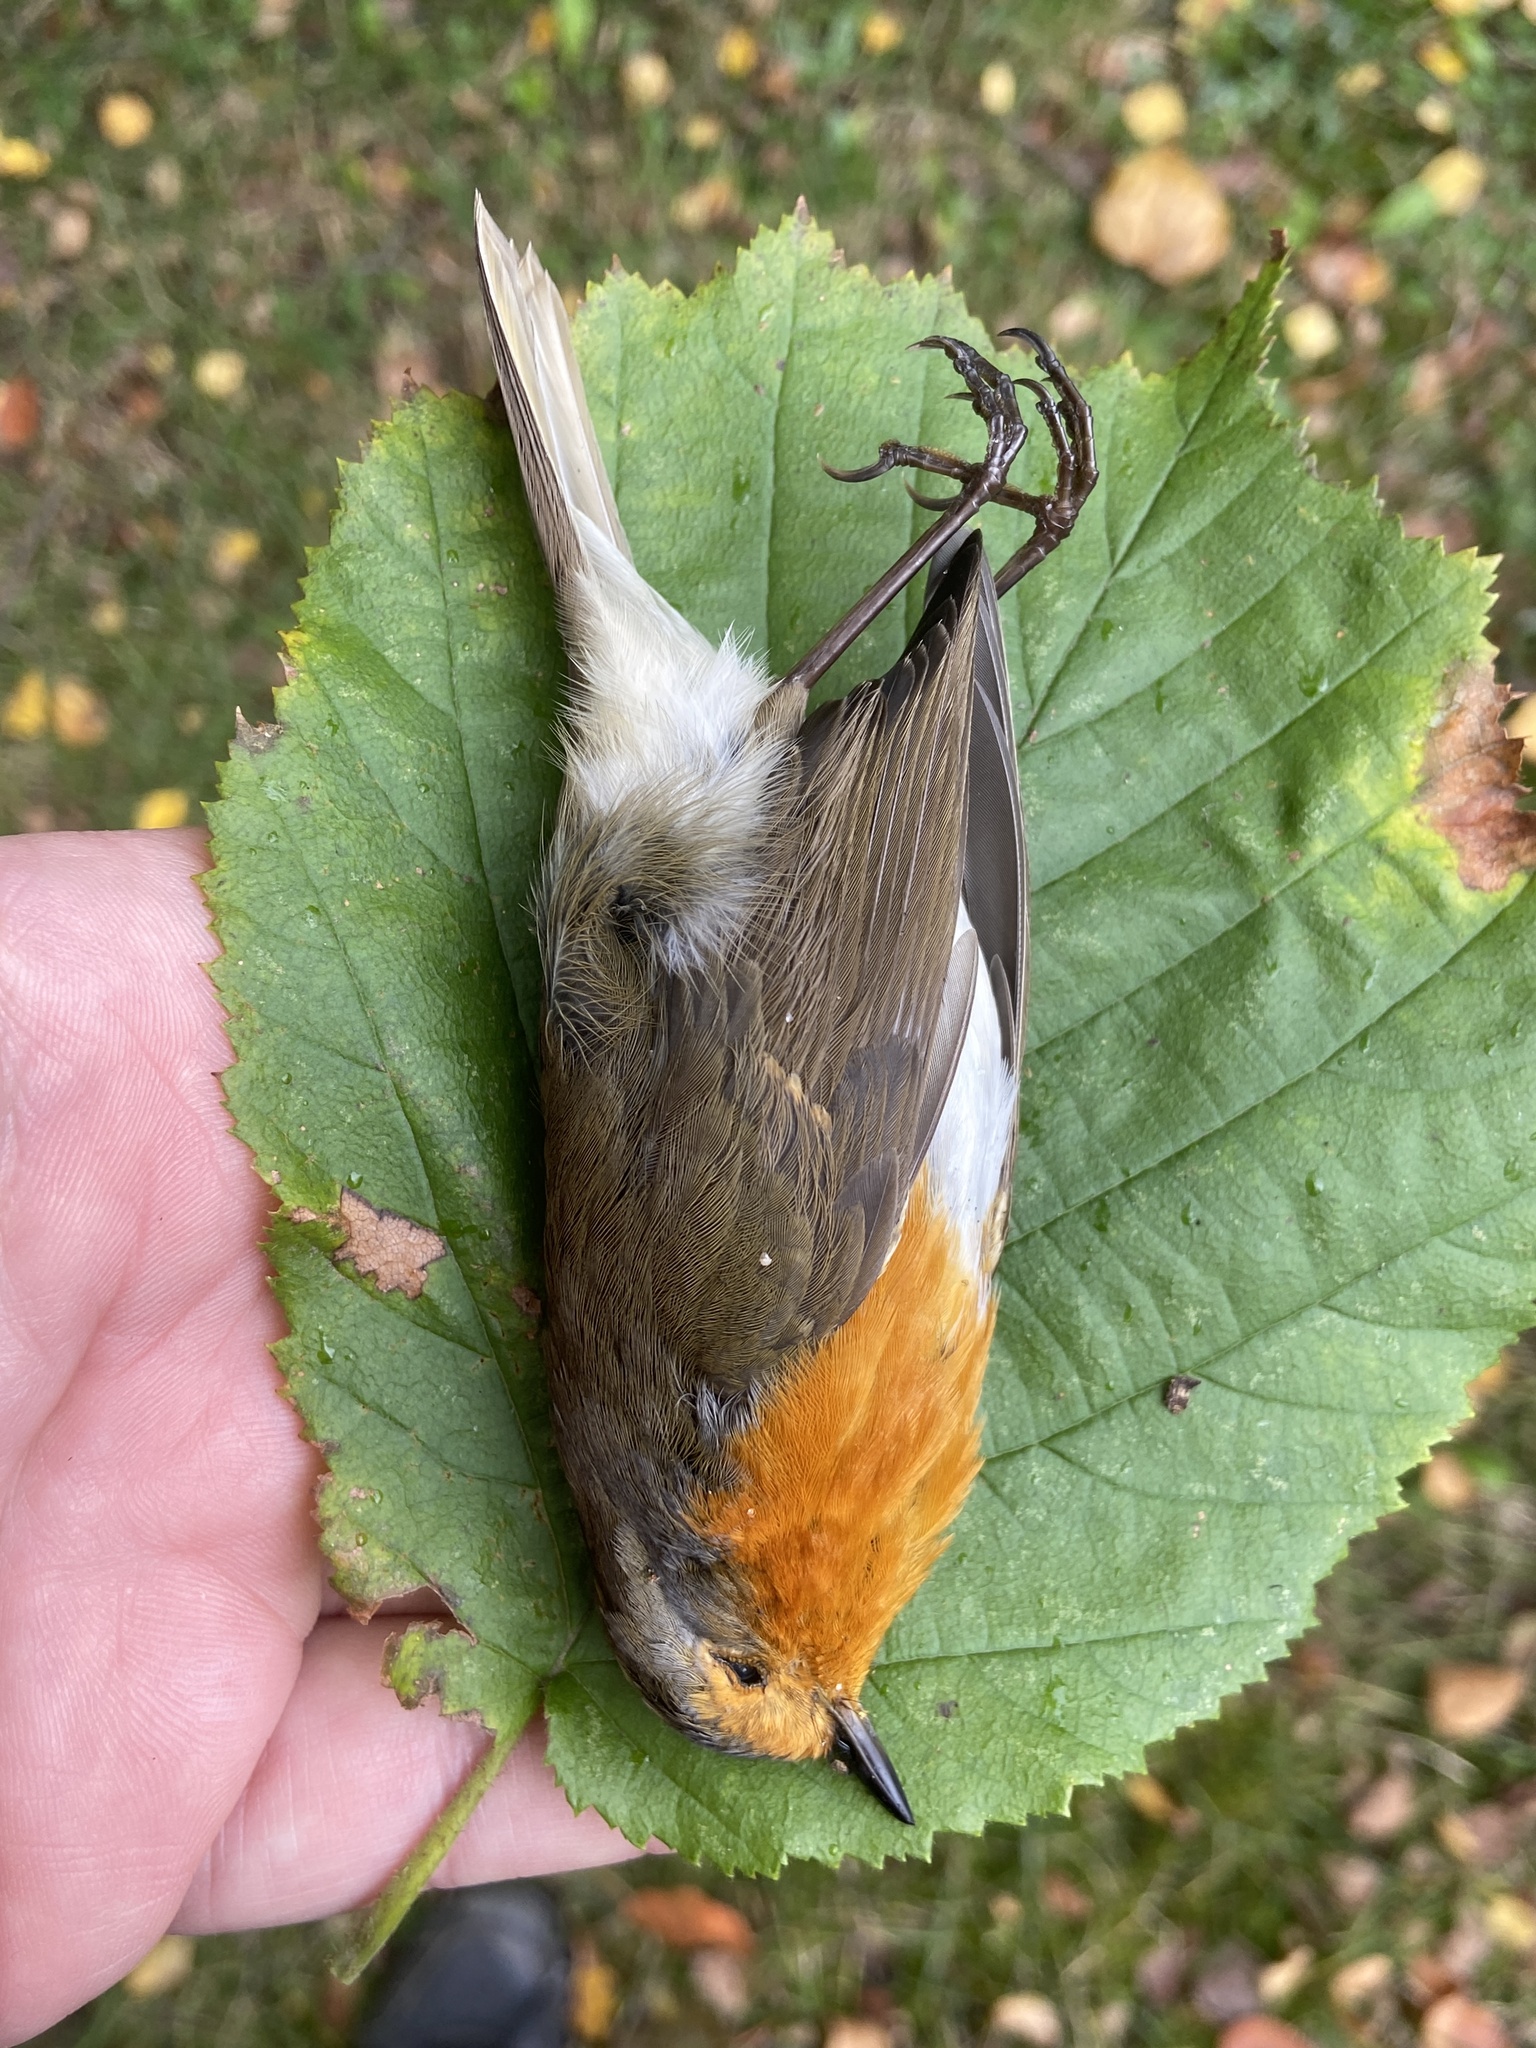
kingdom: Animalia
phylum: Chordata
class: Aves
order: Passeriformes
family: Muscicapidae
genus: Erithacus
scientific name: Erithacus rubecula
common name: European robin
